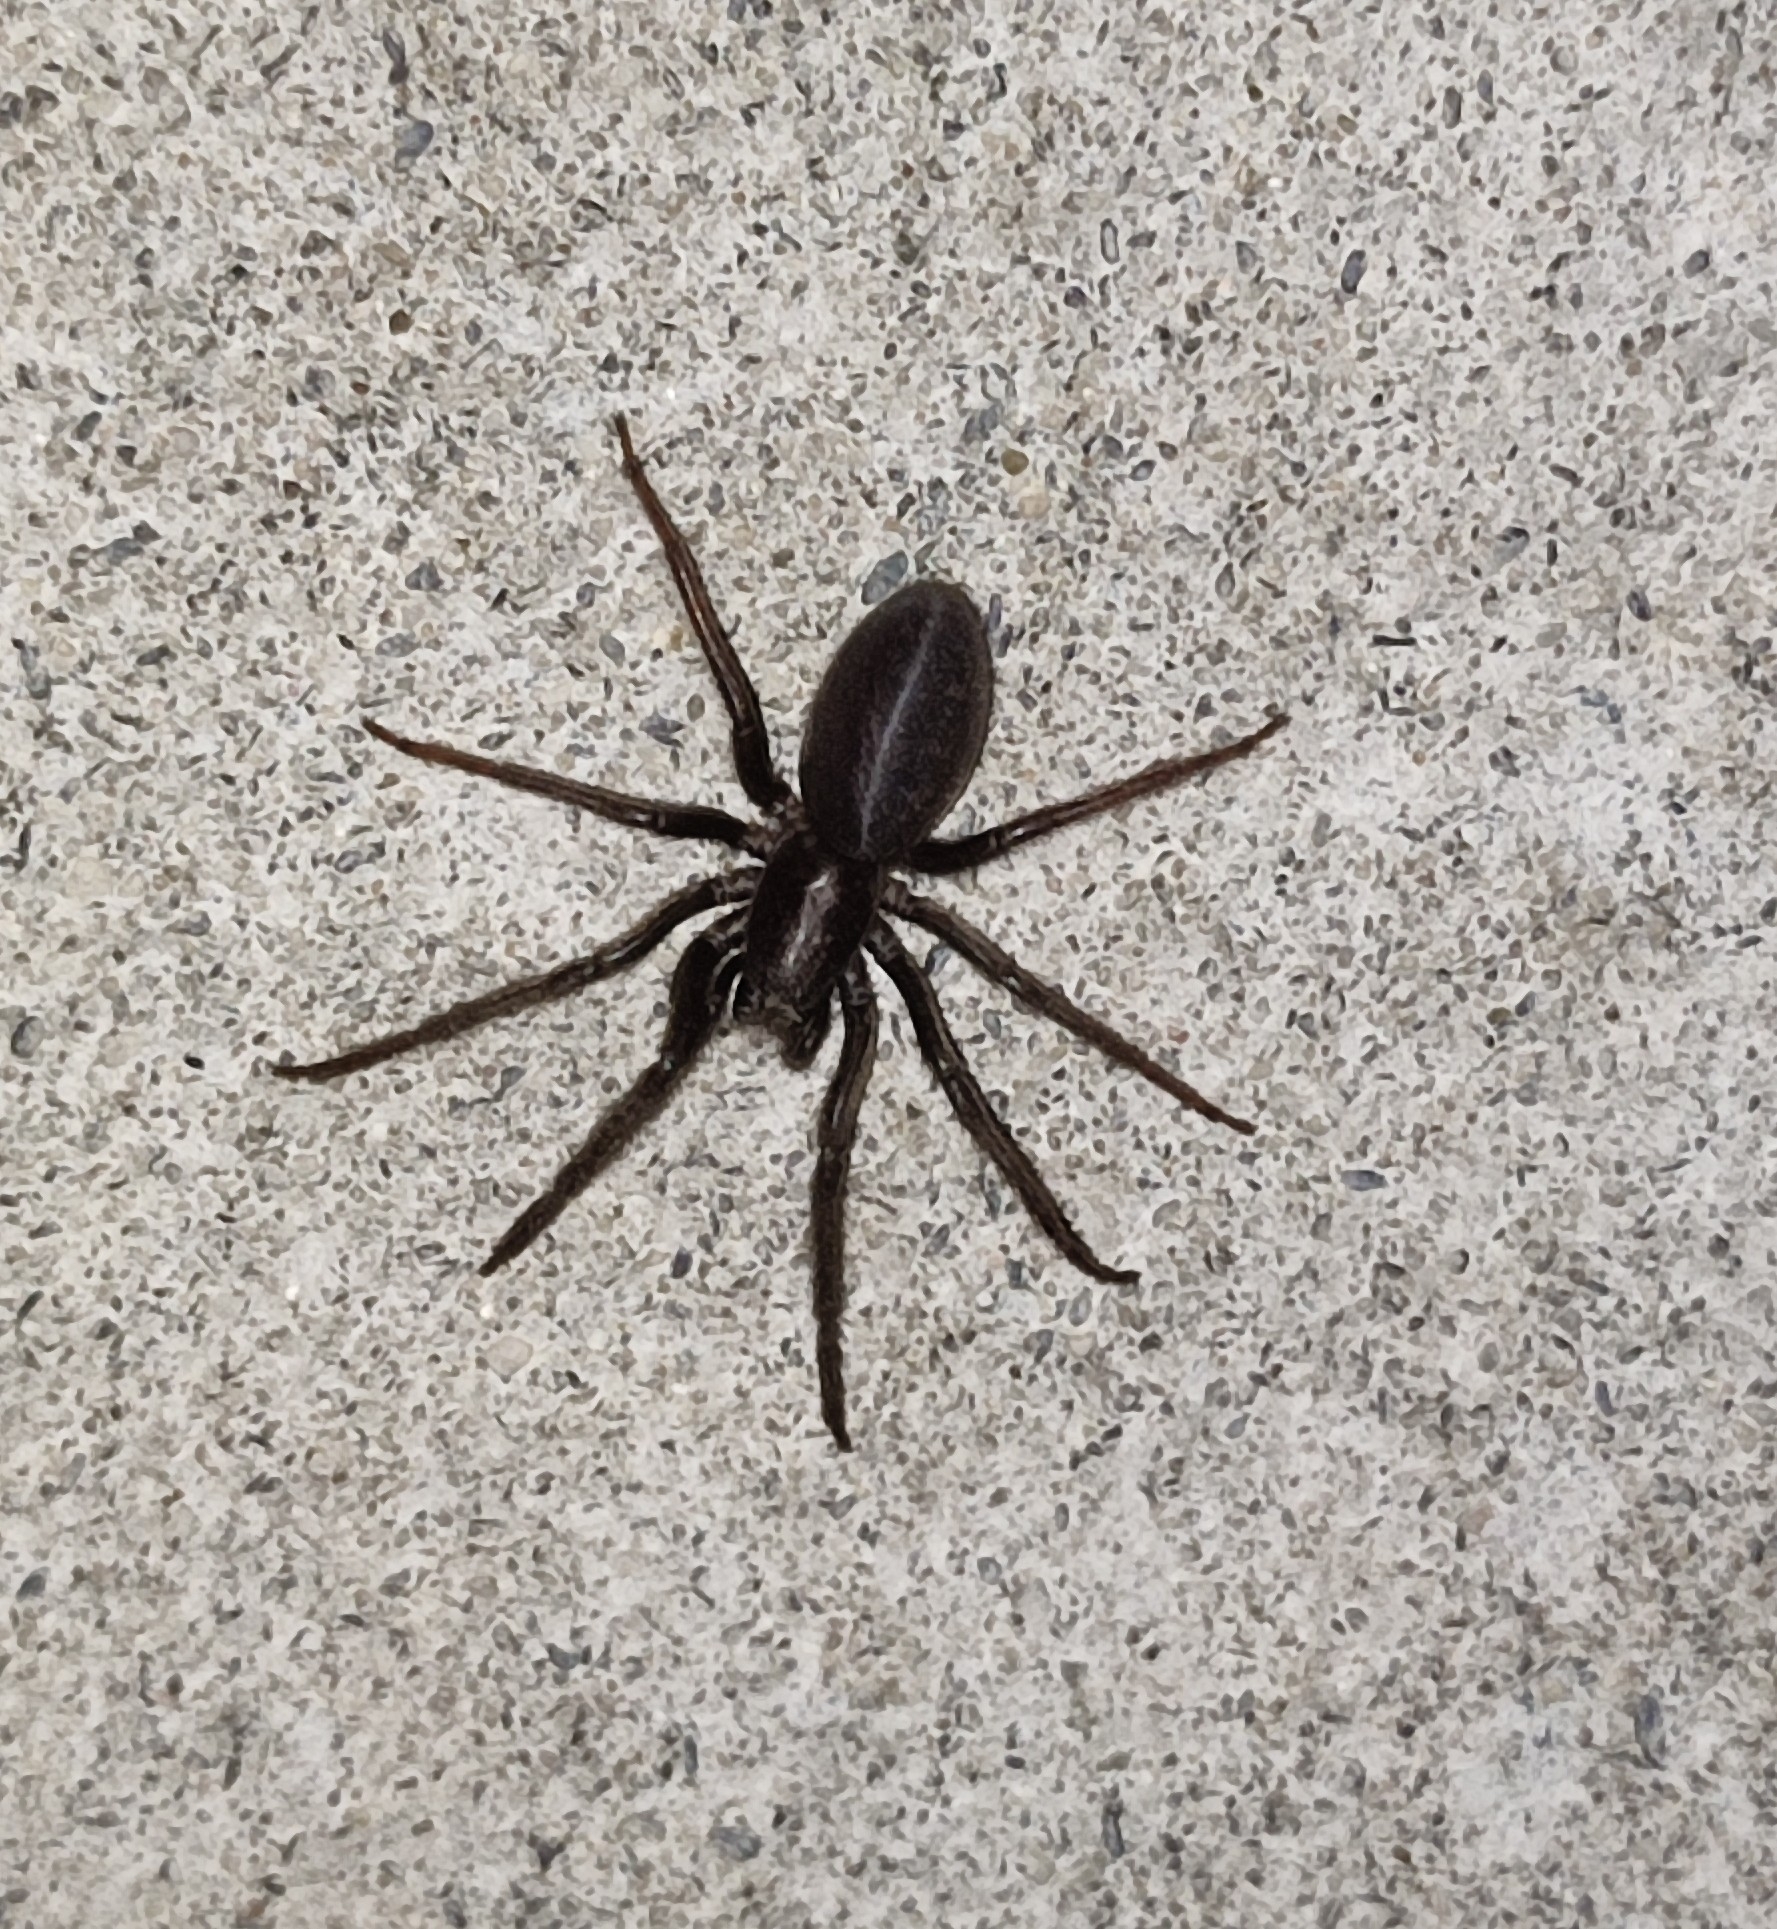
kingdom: Animalia
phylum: Arthropoda
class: Arachnida
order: Araneae
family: Segestriidae
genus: Segestria
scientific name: Segestria florentina
